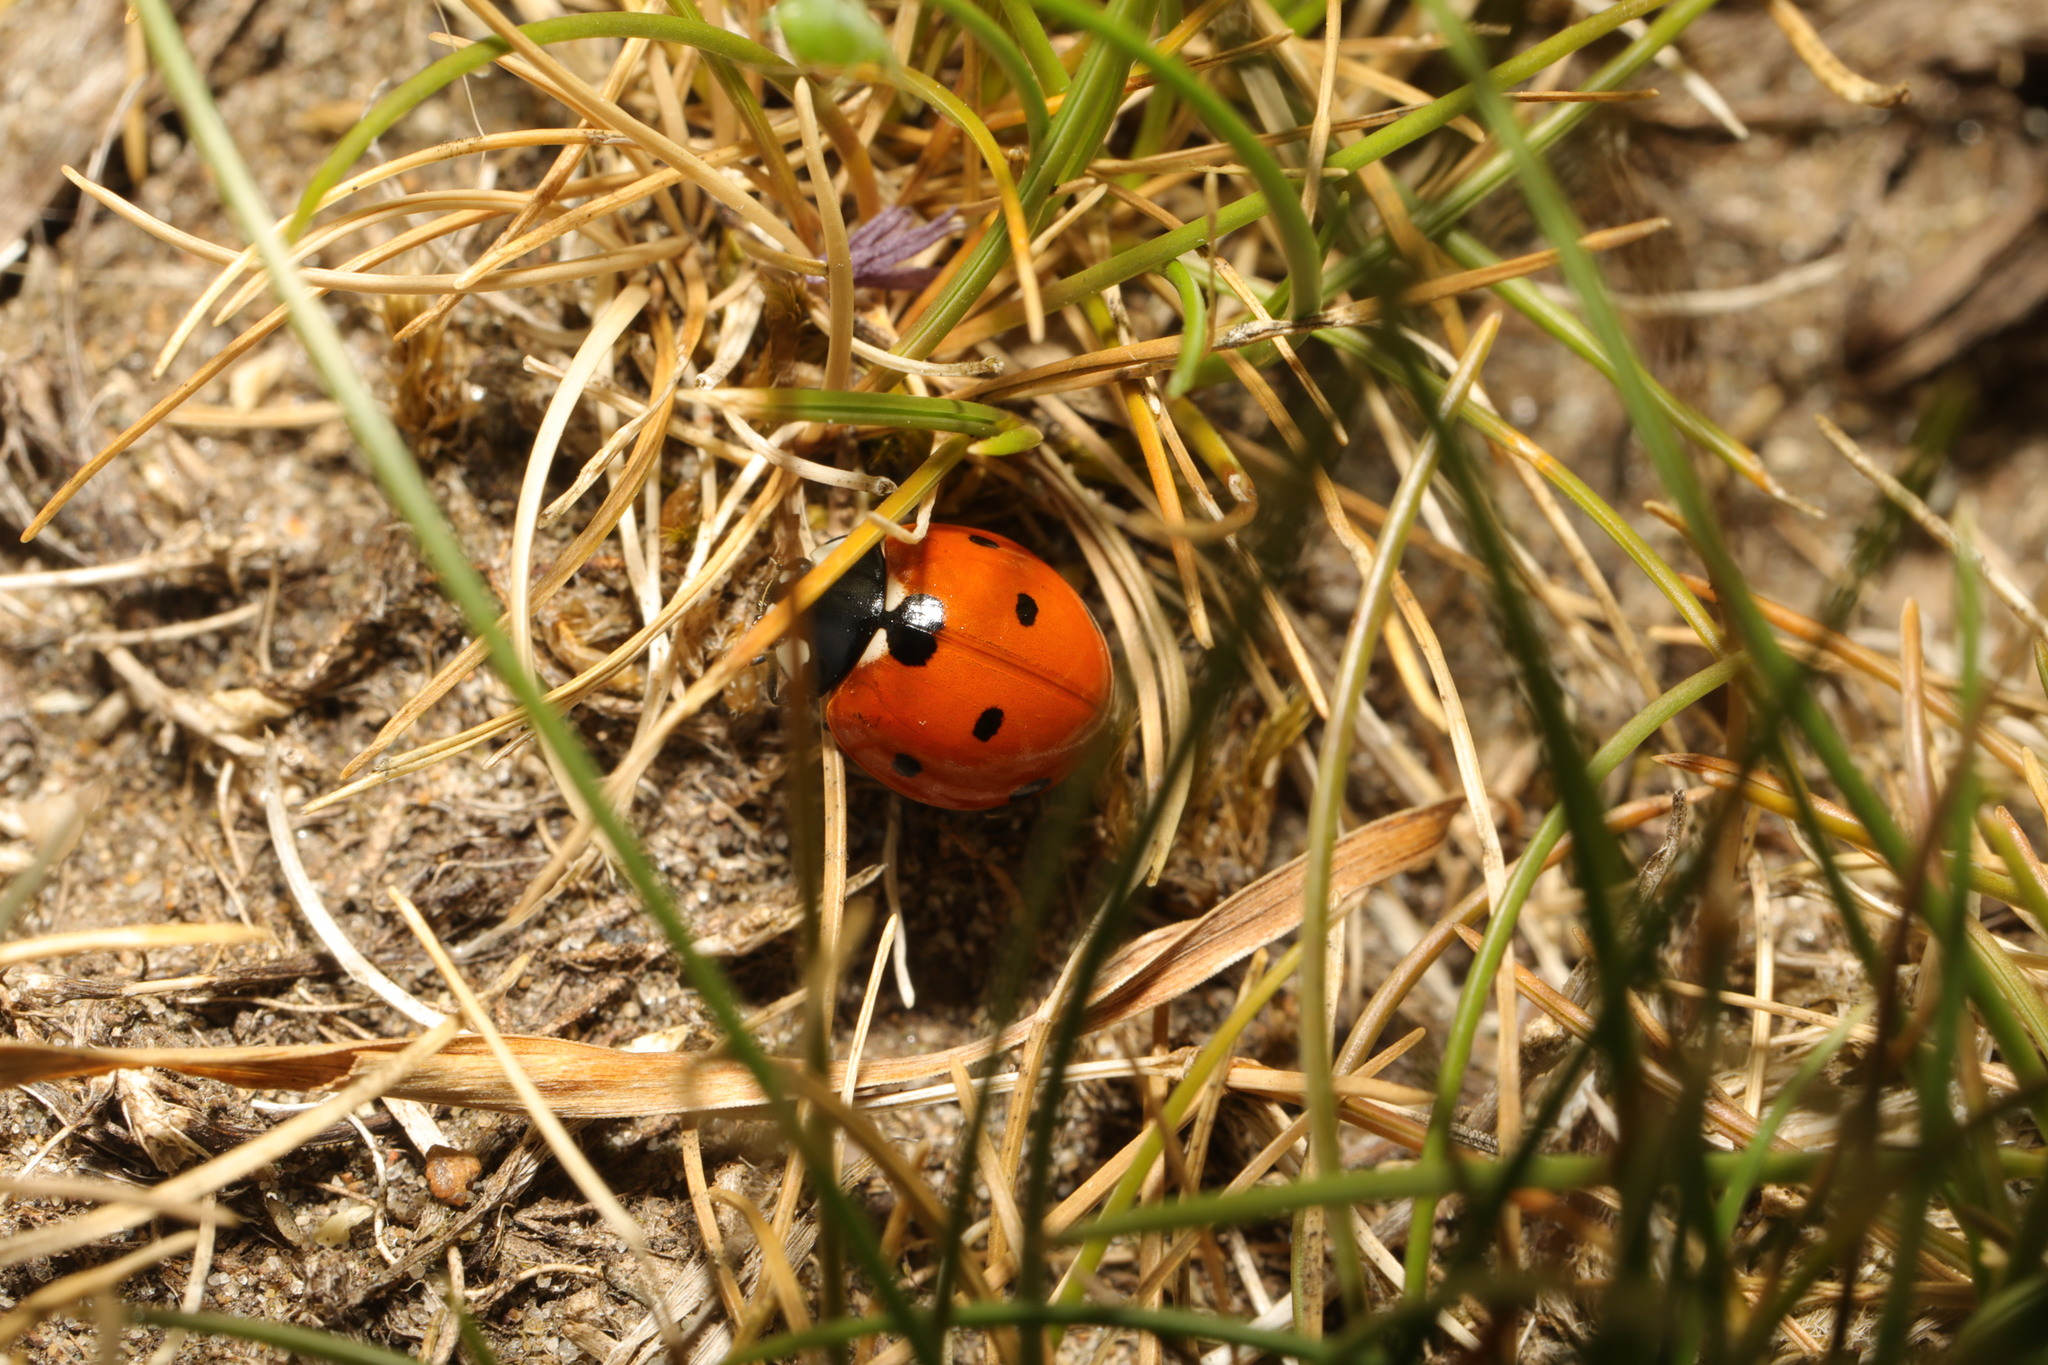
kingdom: Animalia
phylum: Arthropoda
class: Insecta
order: Coleoptera
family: Coccinellidae
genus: Coccinella
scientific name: Coccinella septempunctata
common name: Sevenspotted lady beetle
